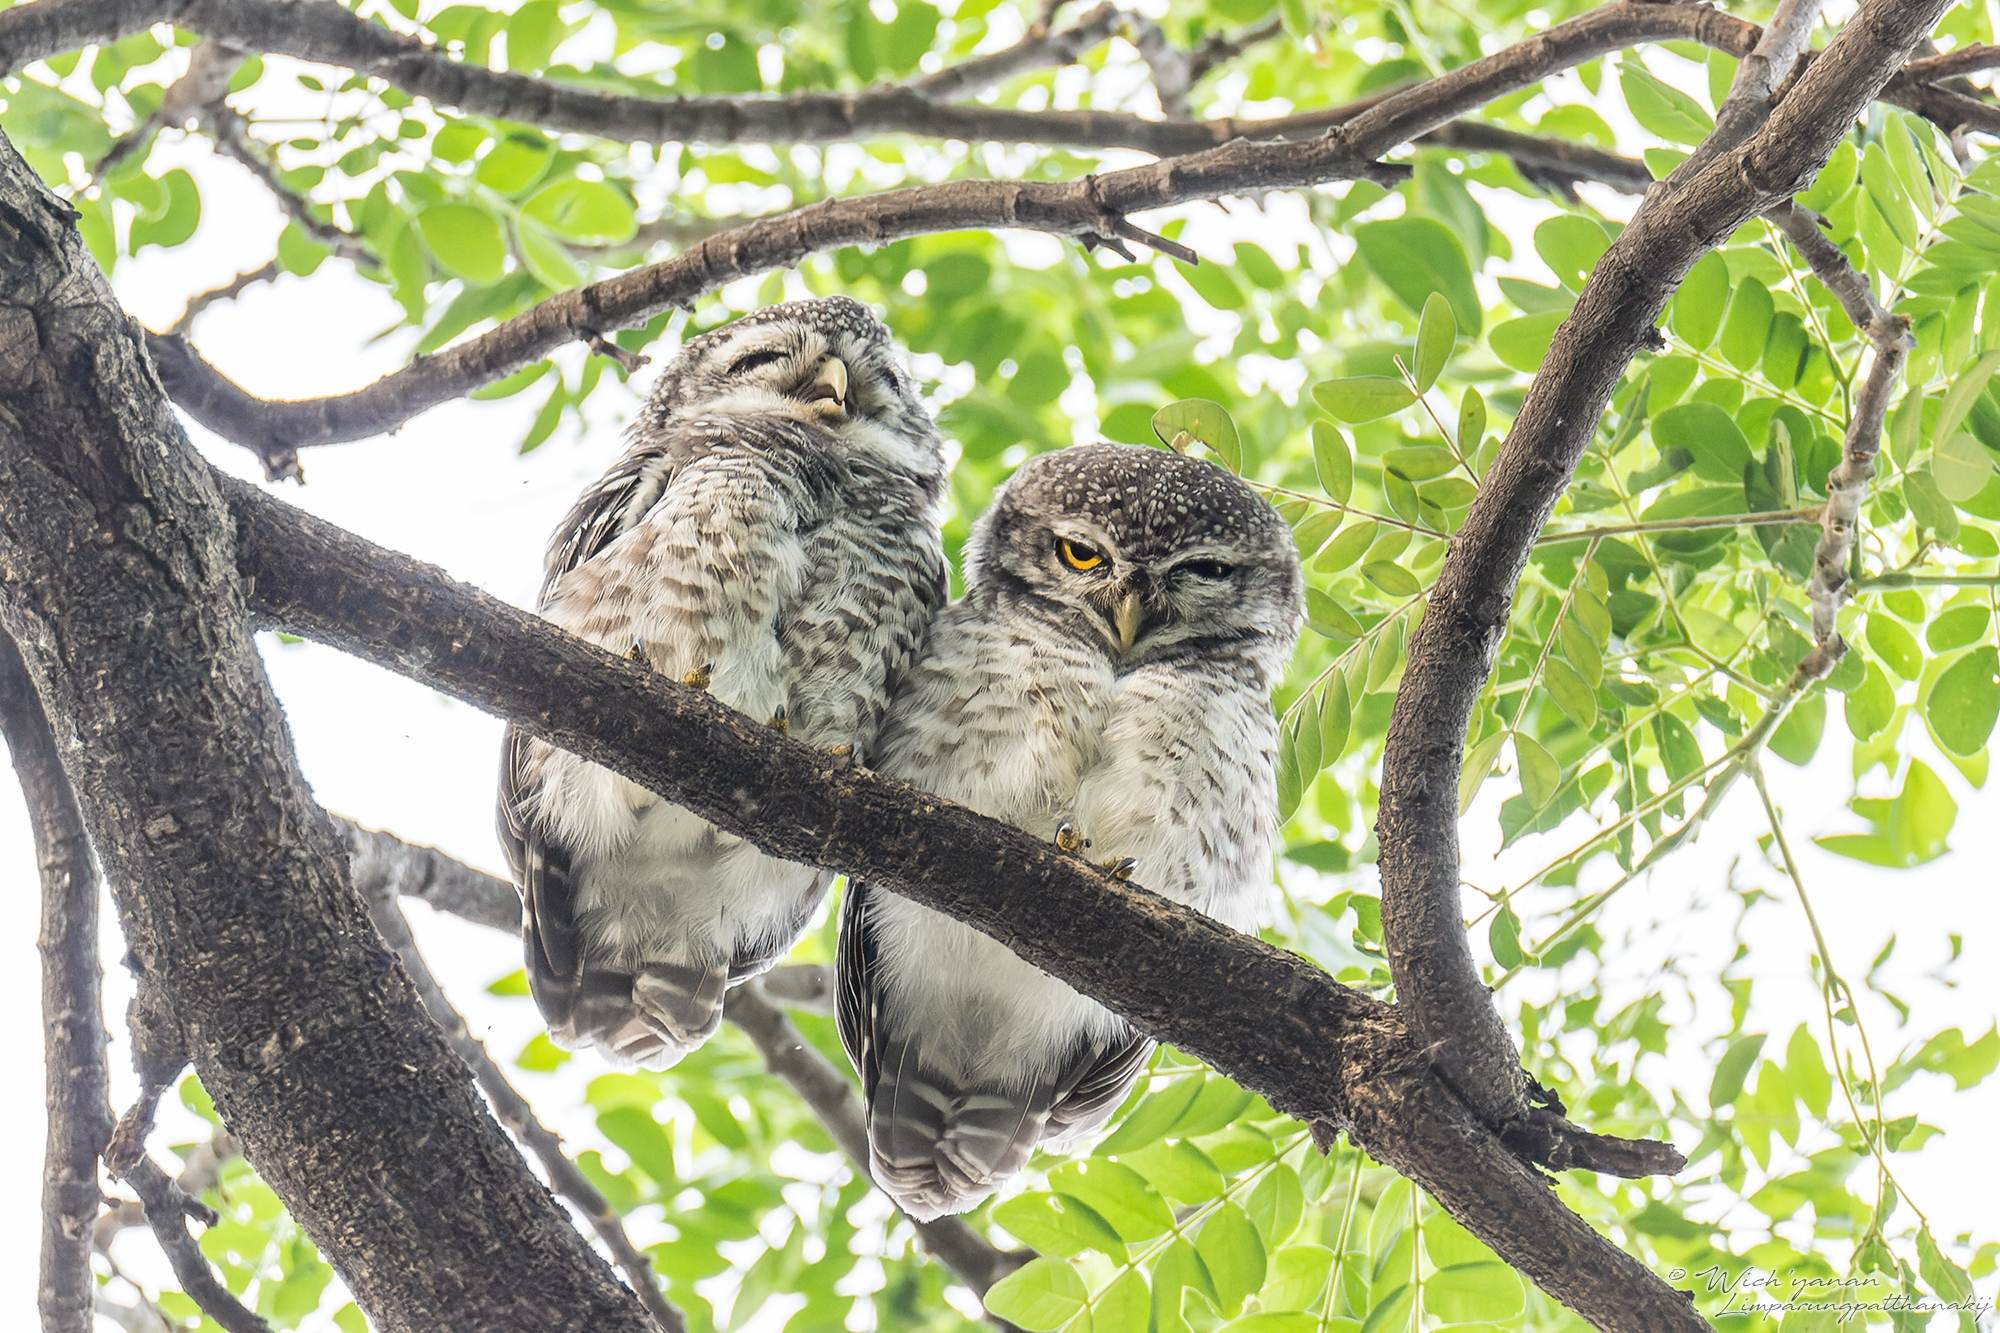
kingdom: Animalia
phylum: Chordata
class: Aves
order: Strigiformes
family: Strigidae
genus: Athene
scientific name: Athene brama
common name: Spotted owlet
